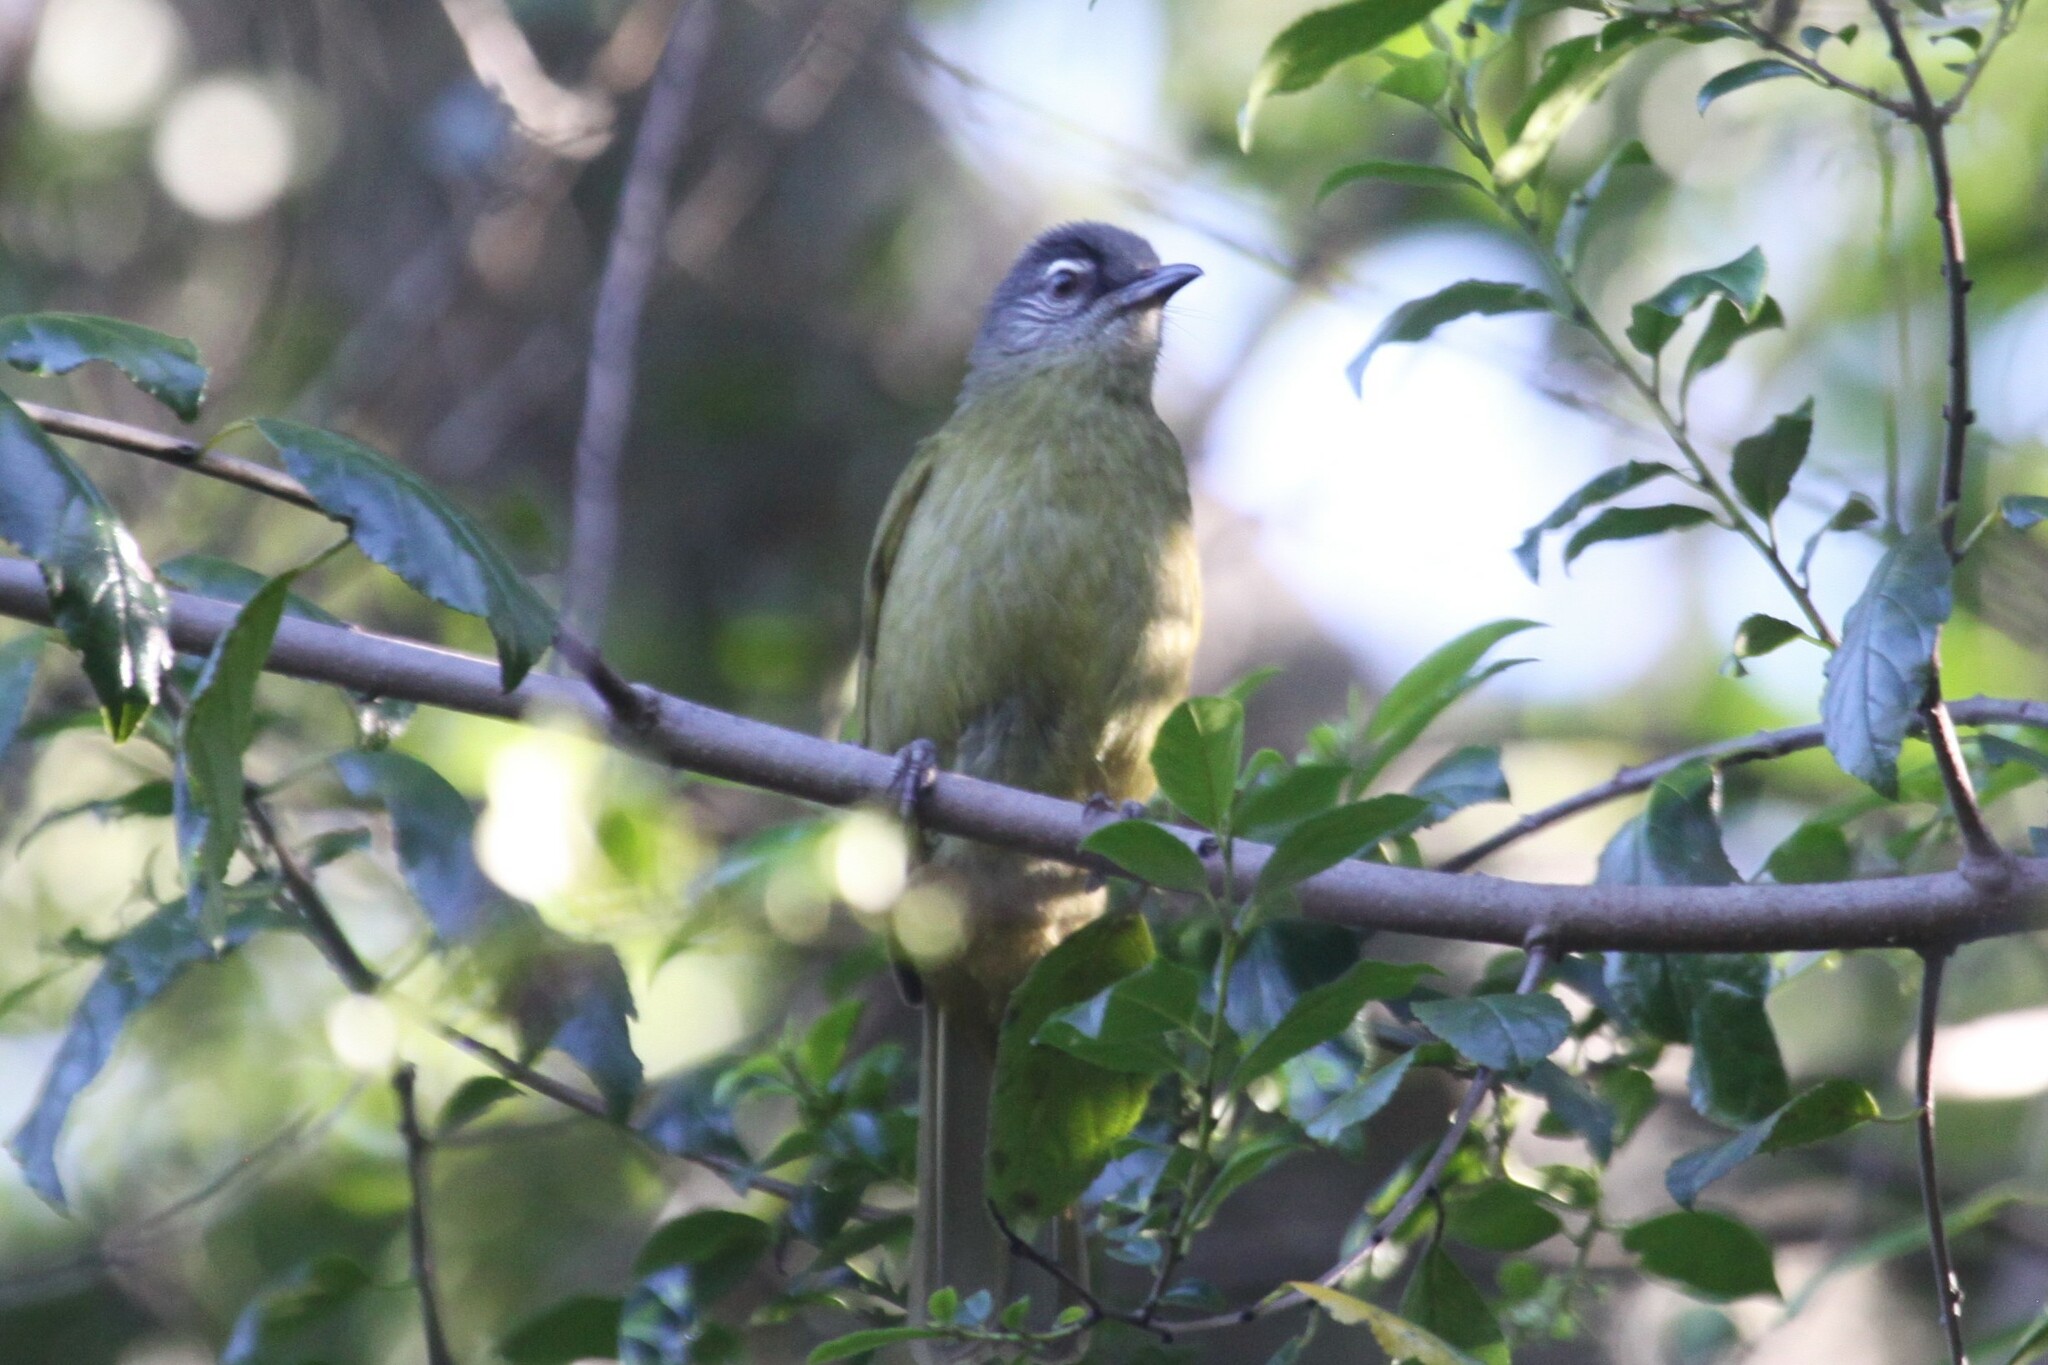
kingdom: Animalia
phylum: Chordata
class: Aves
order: Passeriformes
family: Pycnonotidae
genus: Arizelocichla
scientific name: Arizelocichla milanjensis
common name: Stripe-cheeked greenbul
